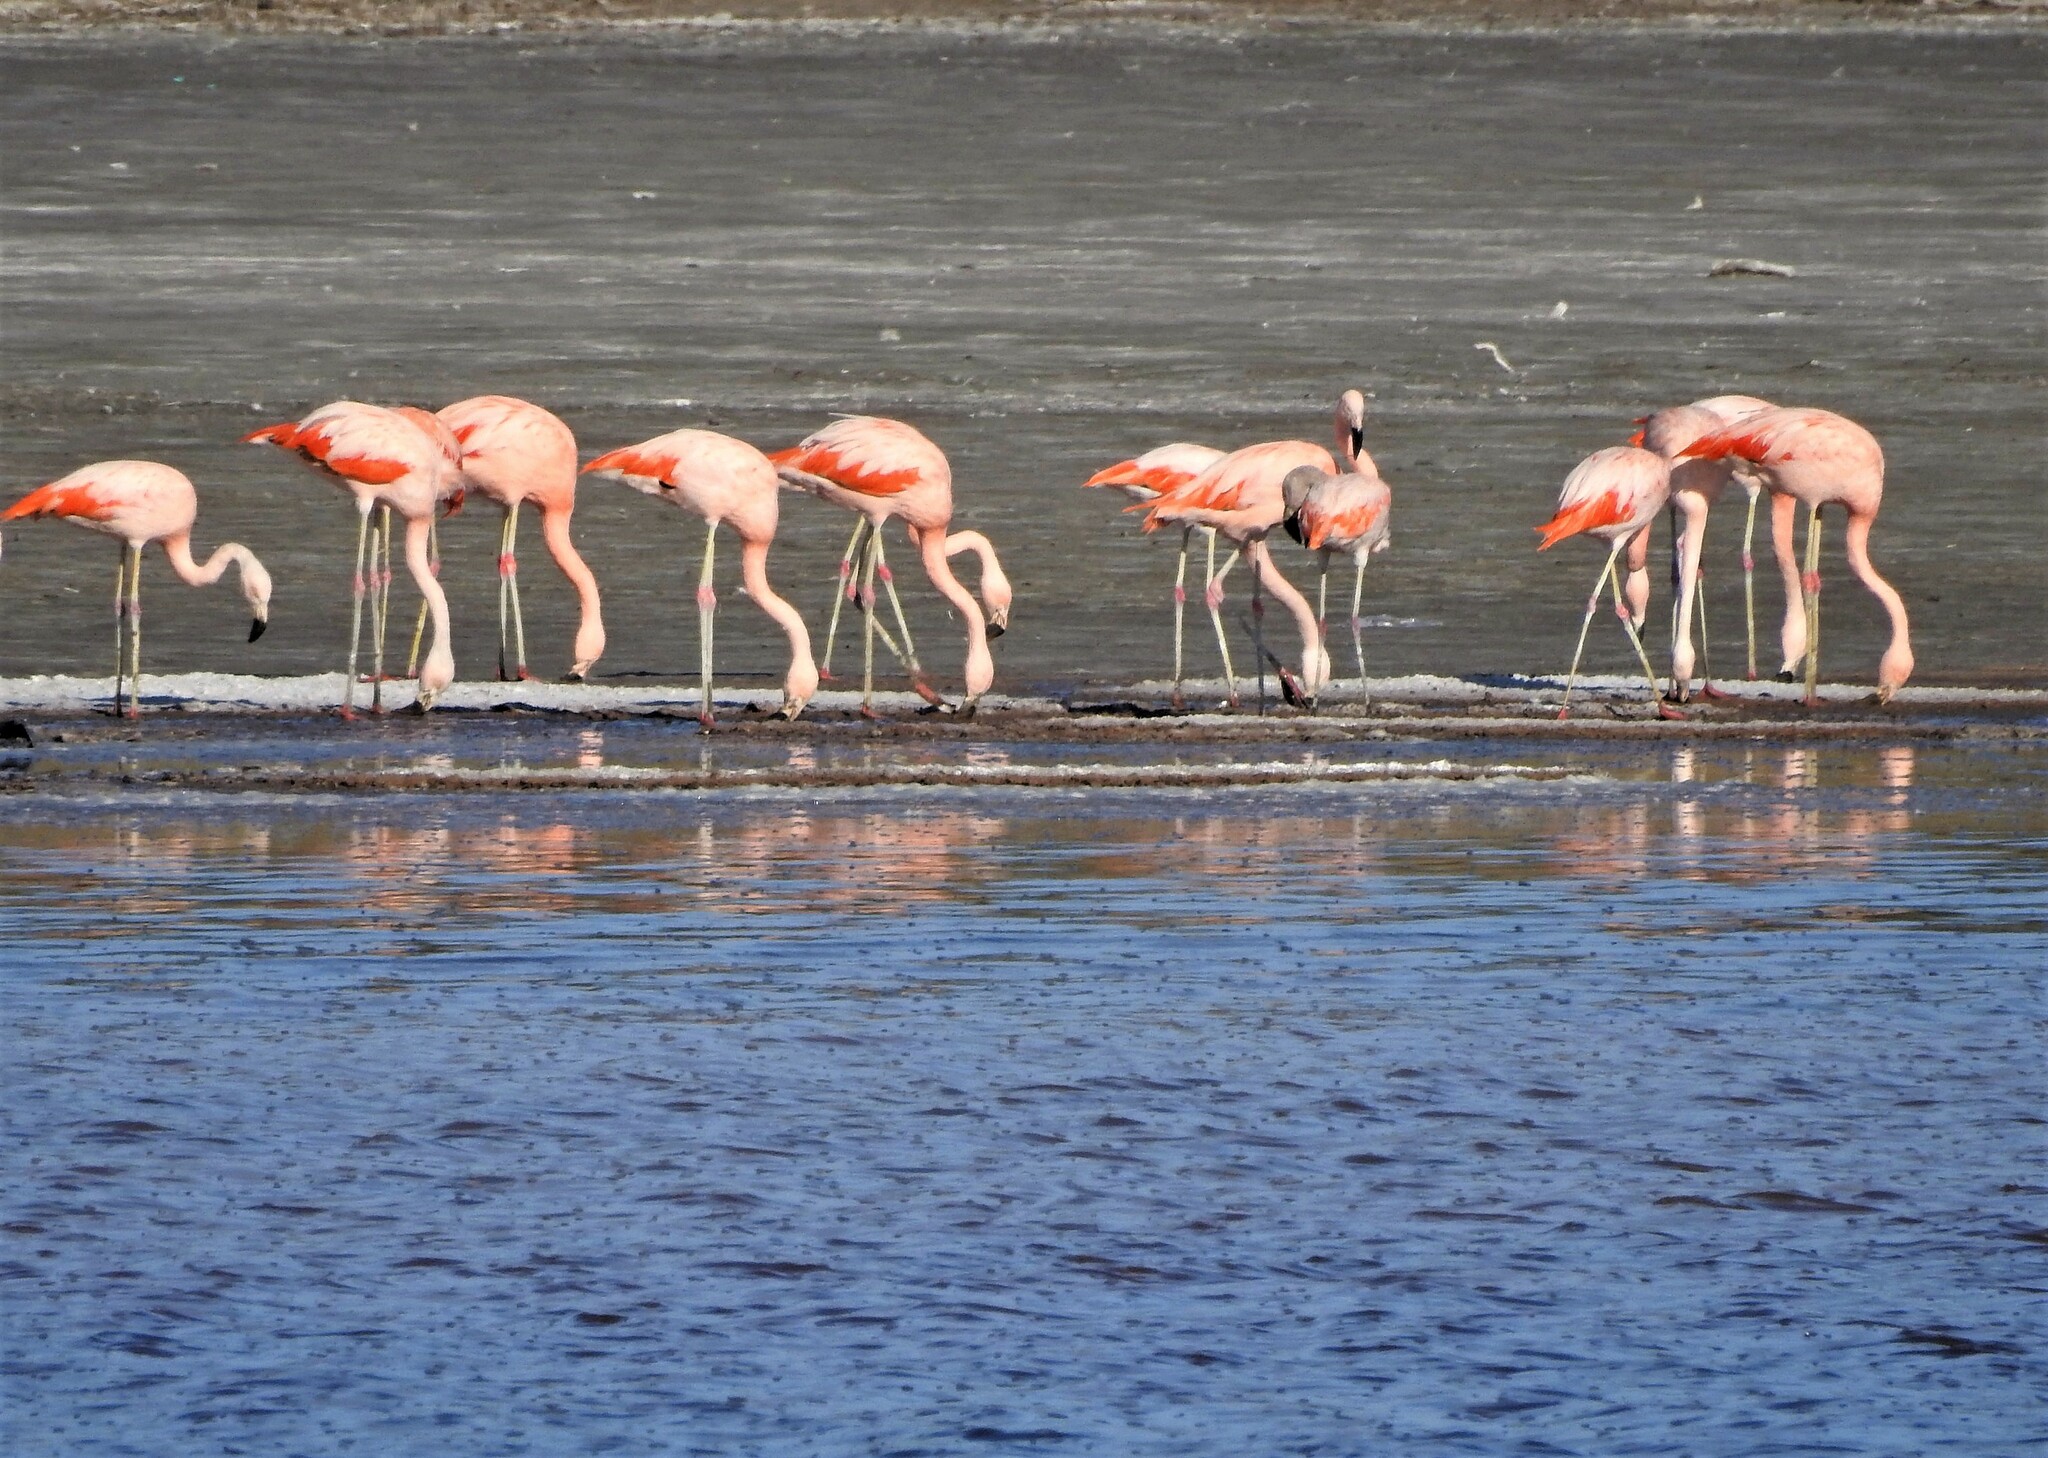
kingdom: Animalia
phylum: Chordata
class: Aves
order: Phoenicopteriformes
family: Phoenicopteridae
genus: Phoenicopterus
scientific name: Phoenicopterus chilensis
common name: Chilean flamingo
